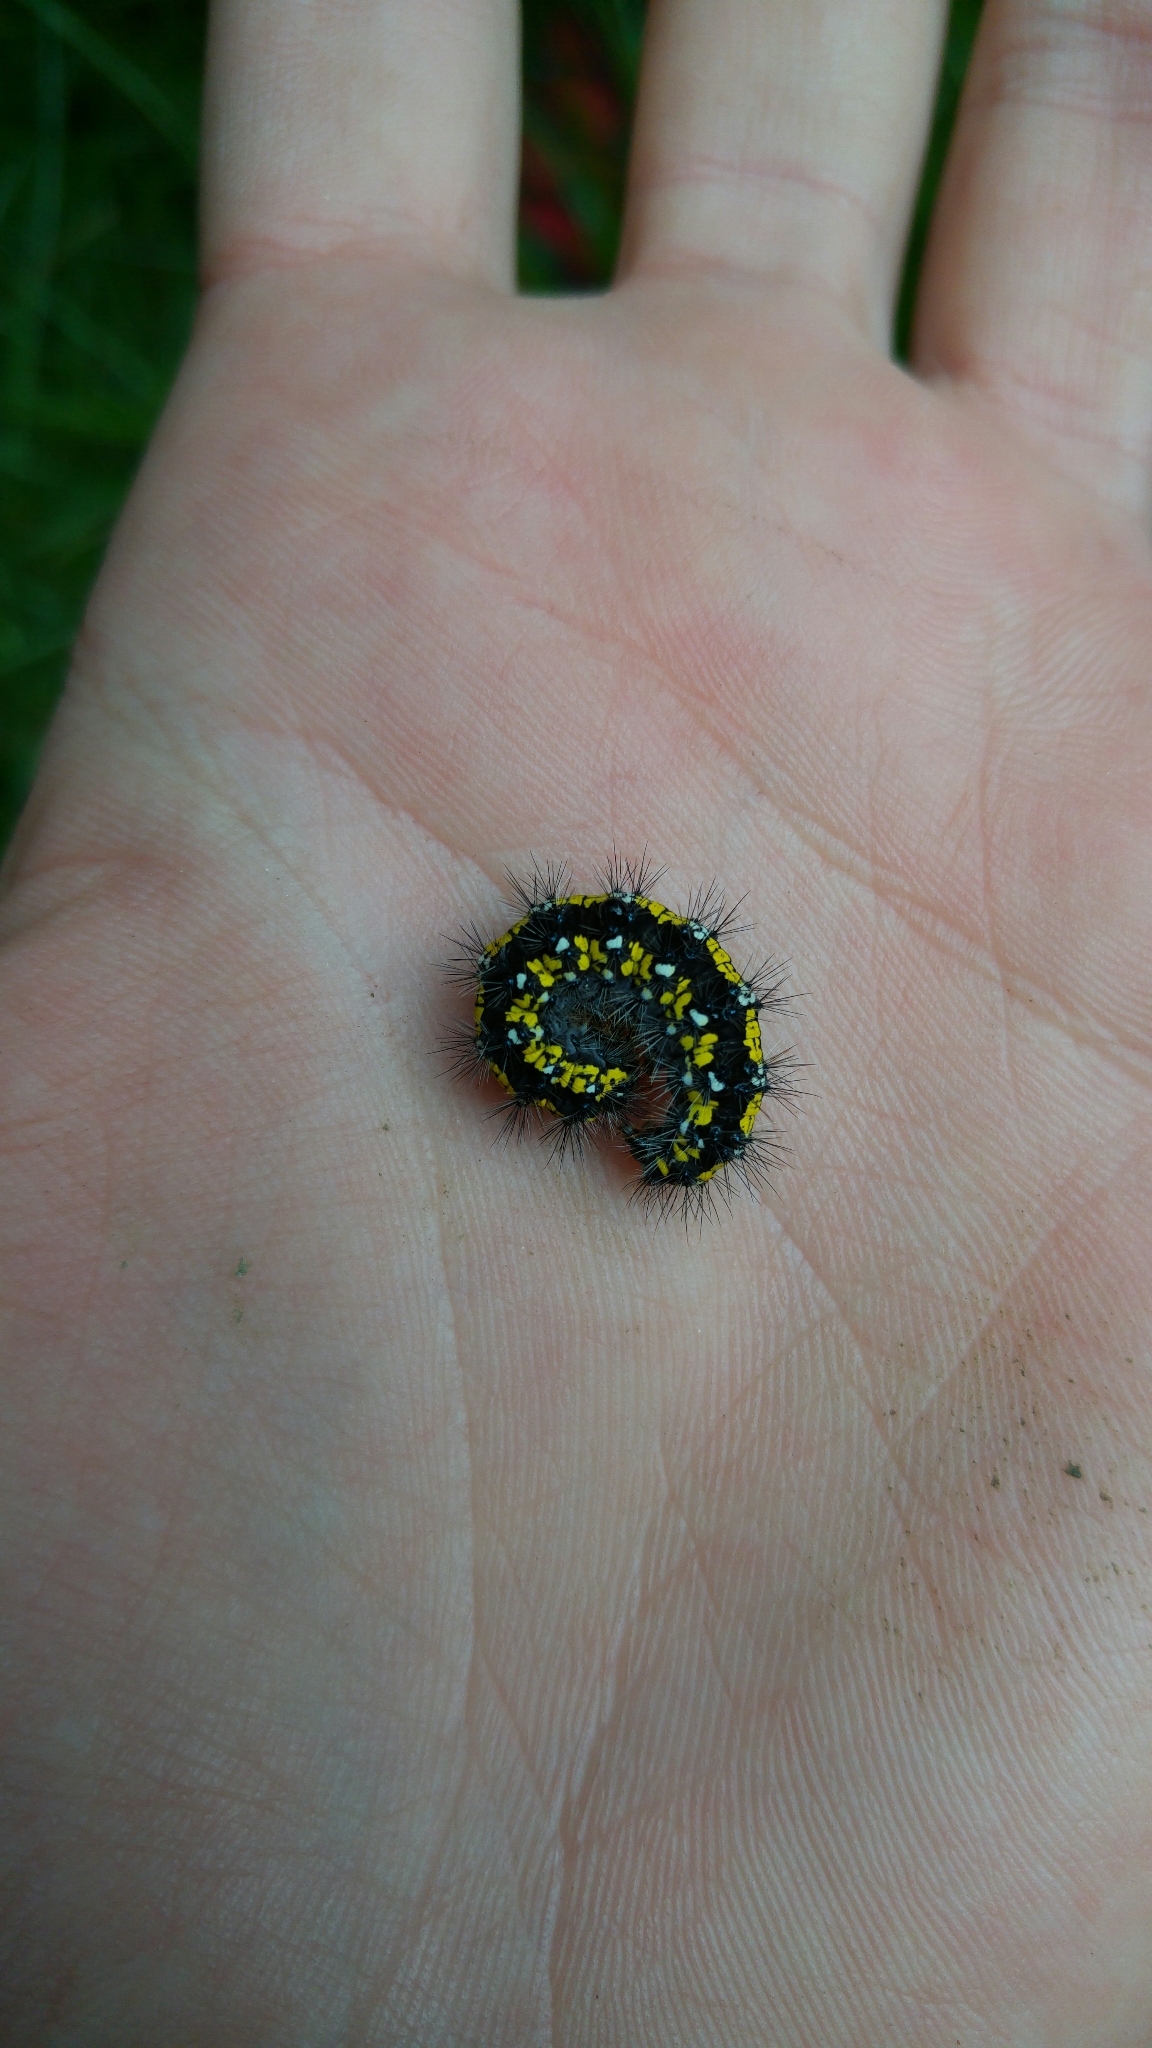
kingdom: Animalia
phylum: Arthropoda
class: Insecta
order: Lepidoptera
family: Erebidae
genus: Callimorpha
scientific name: Callimorpha dominula
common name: Scarlet tiger
